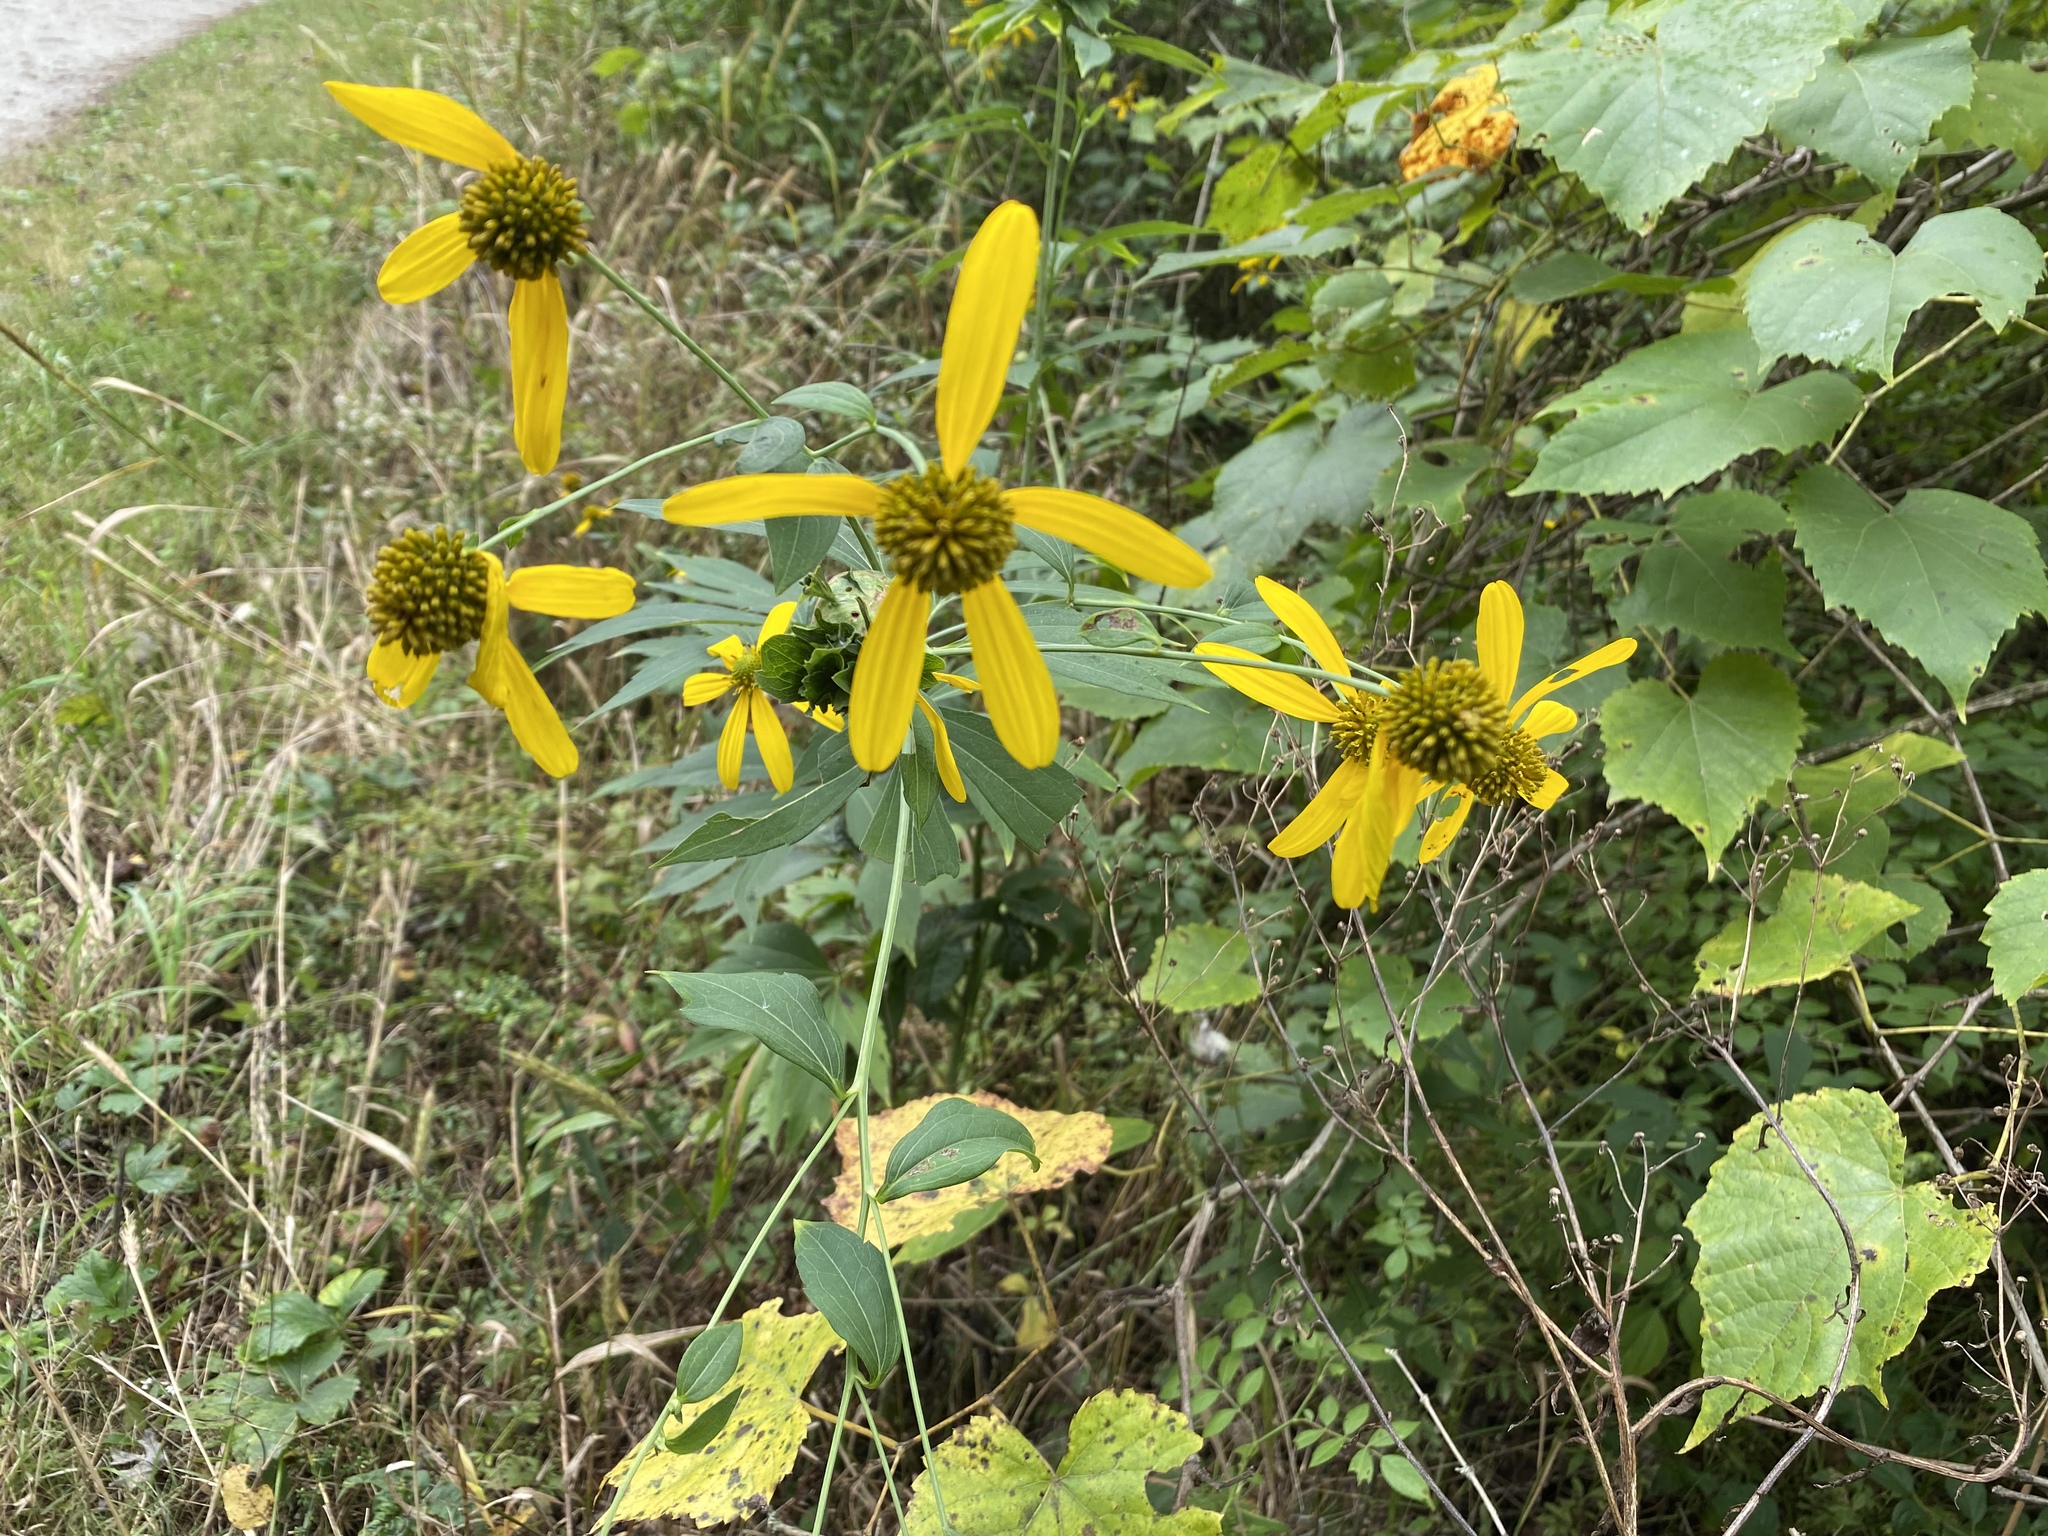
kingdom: Plantae
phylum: Tracheophyta
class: Magnoliopsida
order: Asterales
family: Asteraceae
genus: Rudbeckia
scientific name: Rudbeckia laciniata
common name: Coneflower
